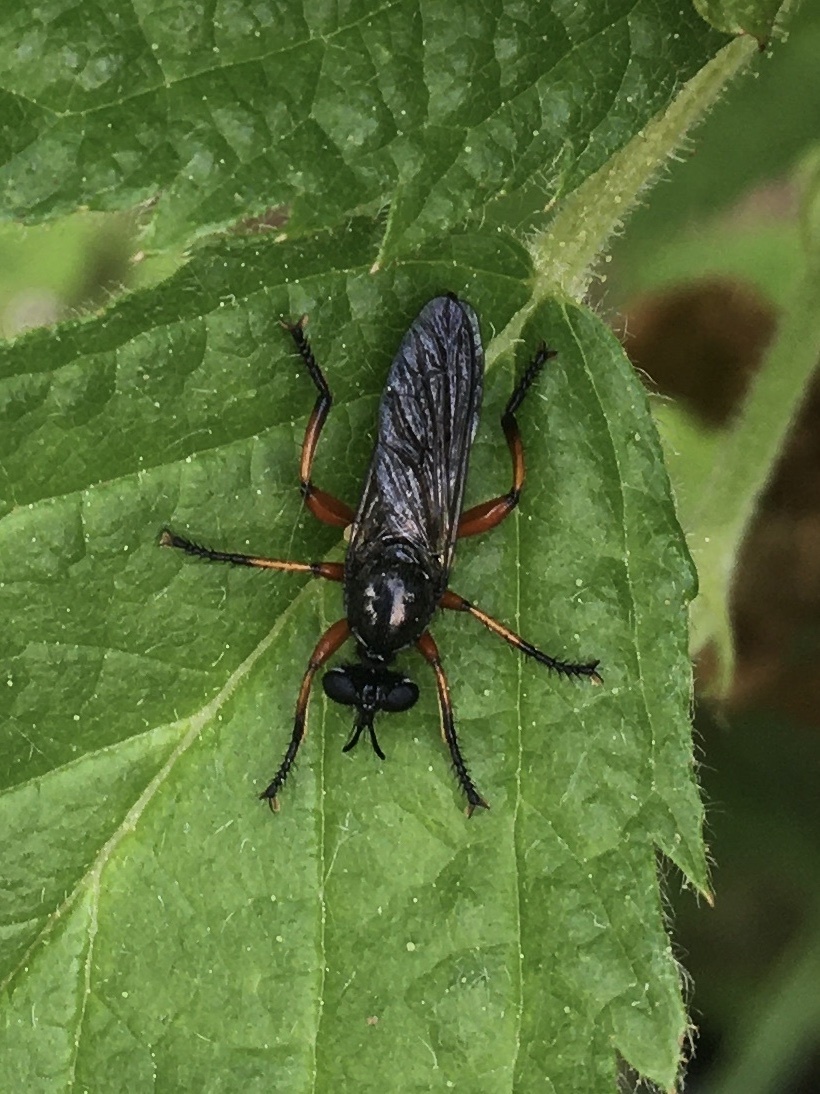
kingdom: Animalia
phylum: Arthropoda
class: Insecta
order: Diptera
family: Asilidae
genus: Laphria
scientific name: Laphria sadales
